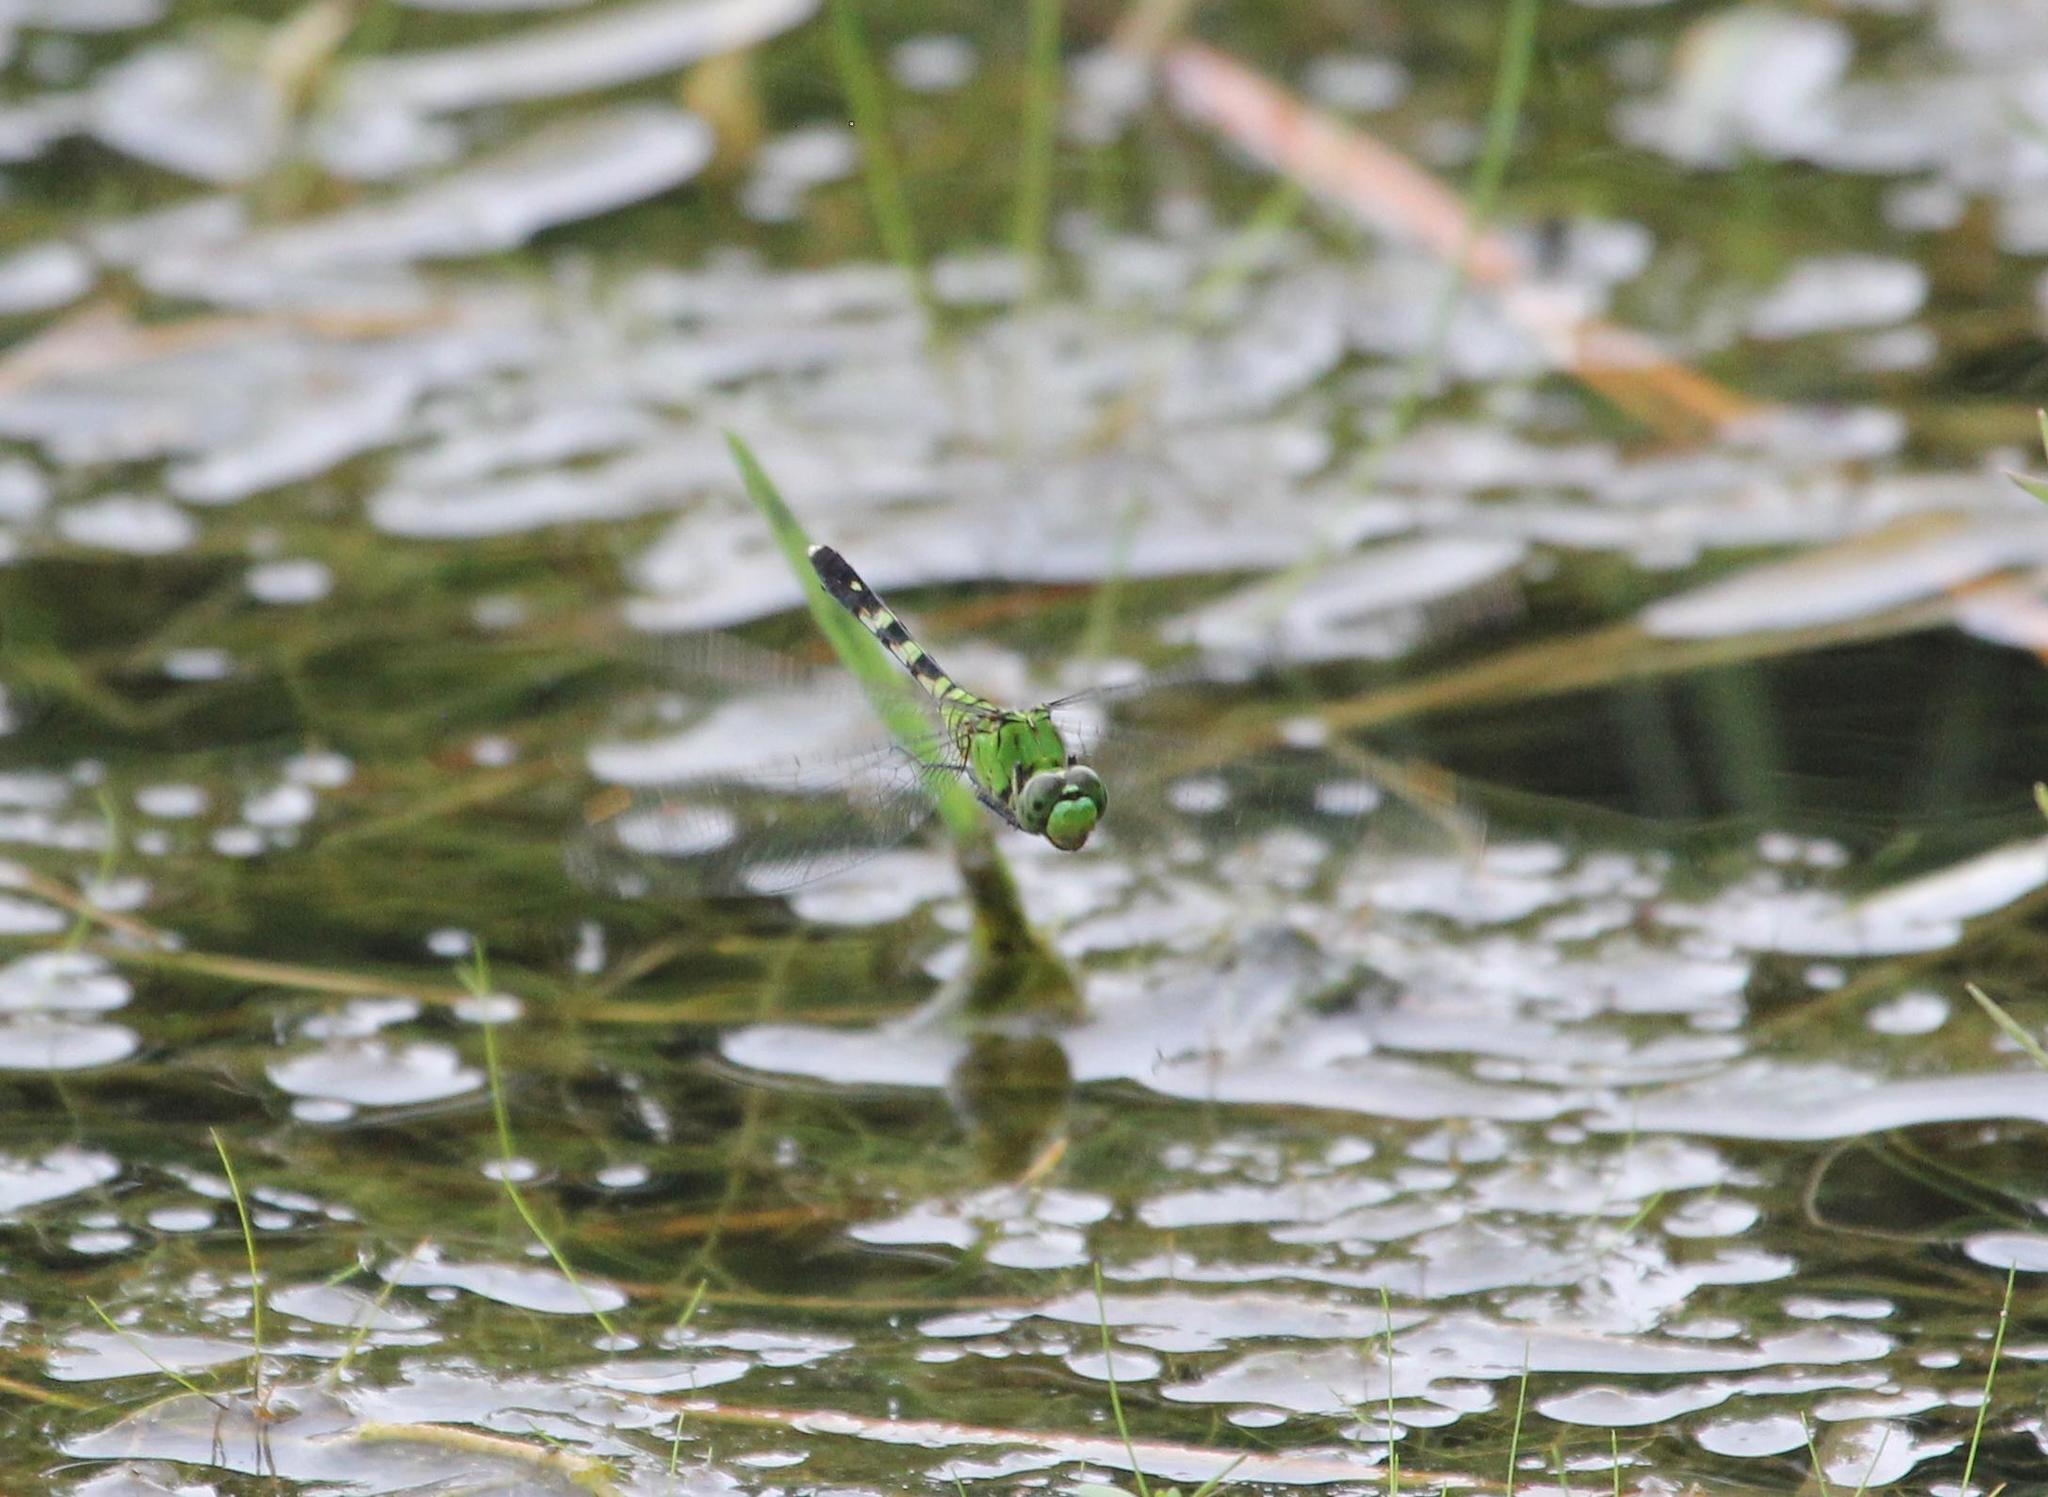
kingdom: Animalia
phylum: Arthropoda
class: Insecta
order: Odonata
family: Libellulidae
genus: Erythemis
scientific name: Erythemis simplicicollis
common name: Eastern pondhawk
